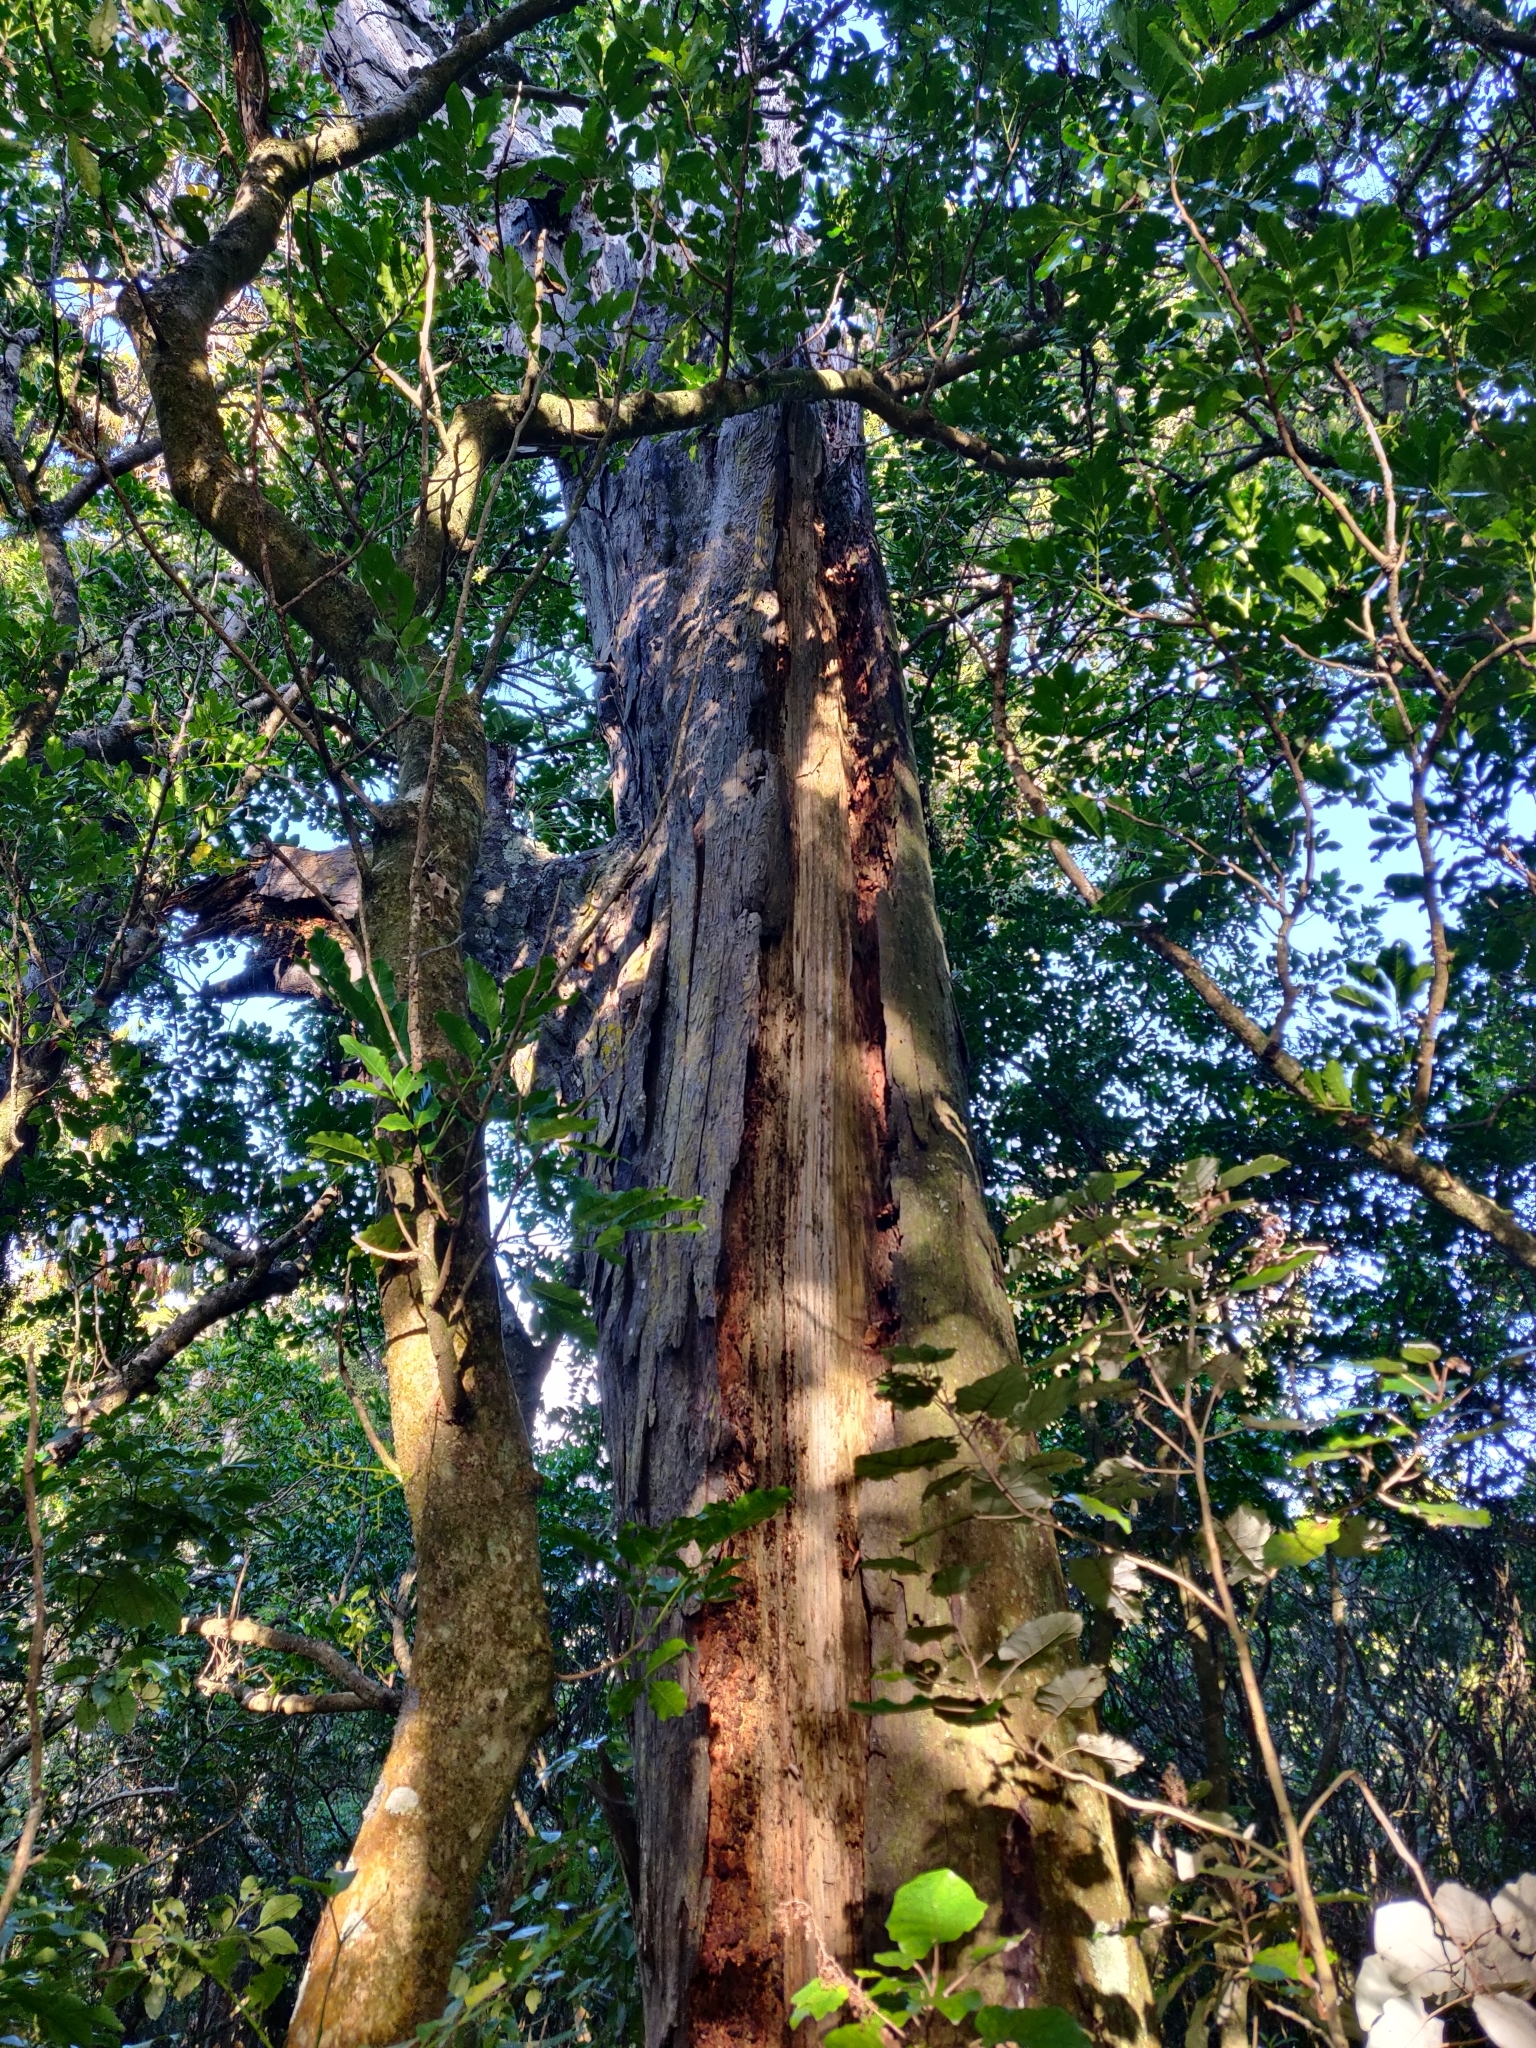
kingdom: Plantae
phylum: Tracheophyta
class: Pinopsida
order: Pinales
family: Podocarpaceae
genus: Dacrydium
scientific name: Dacrydium cupressinum
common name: Red pine
